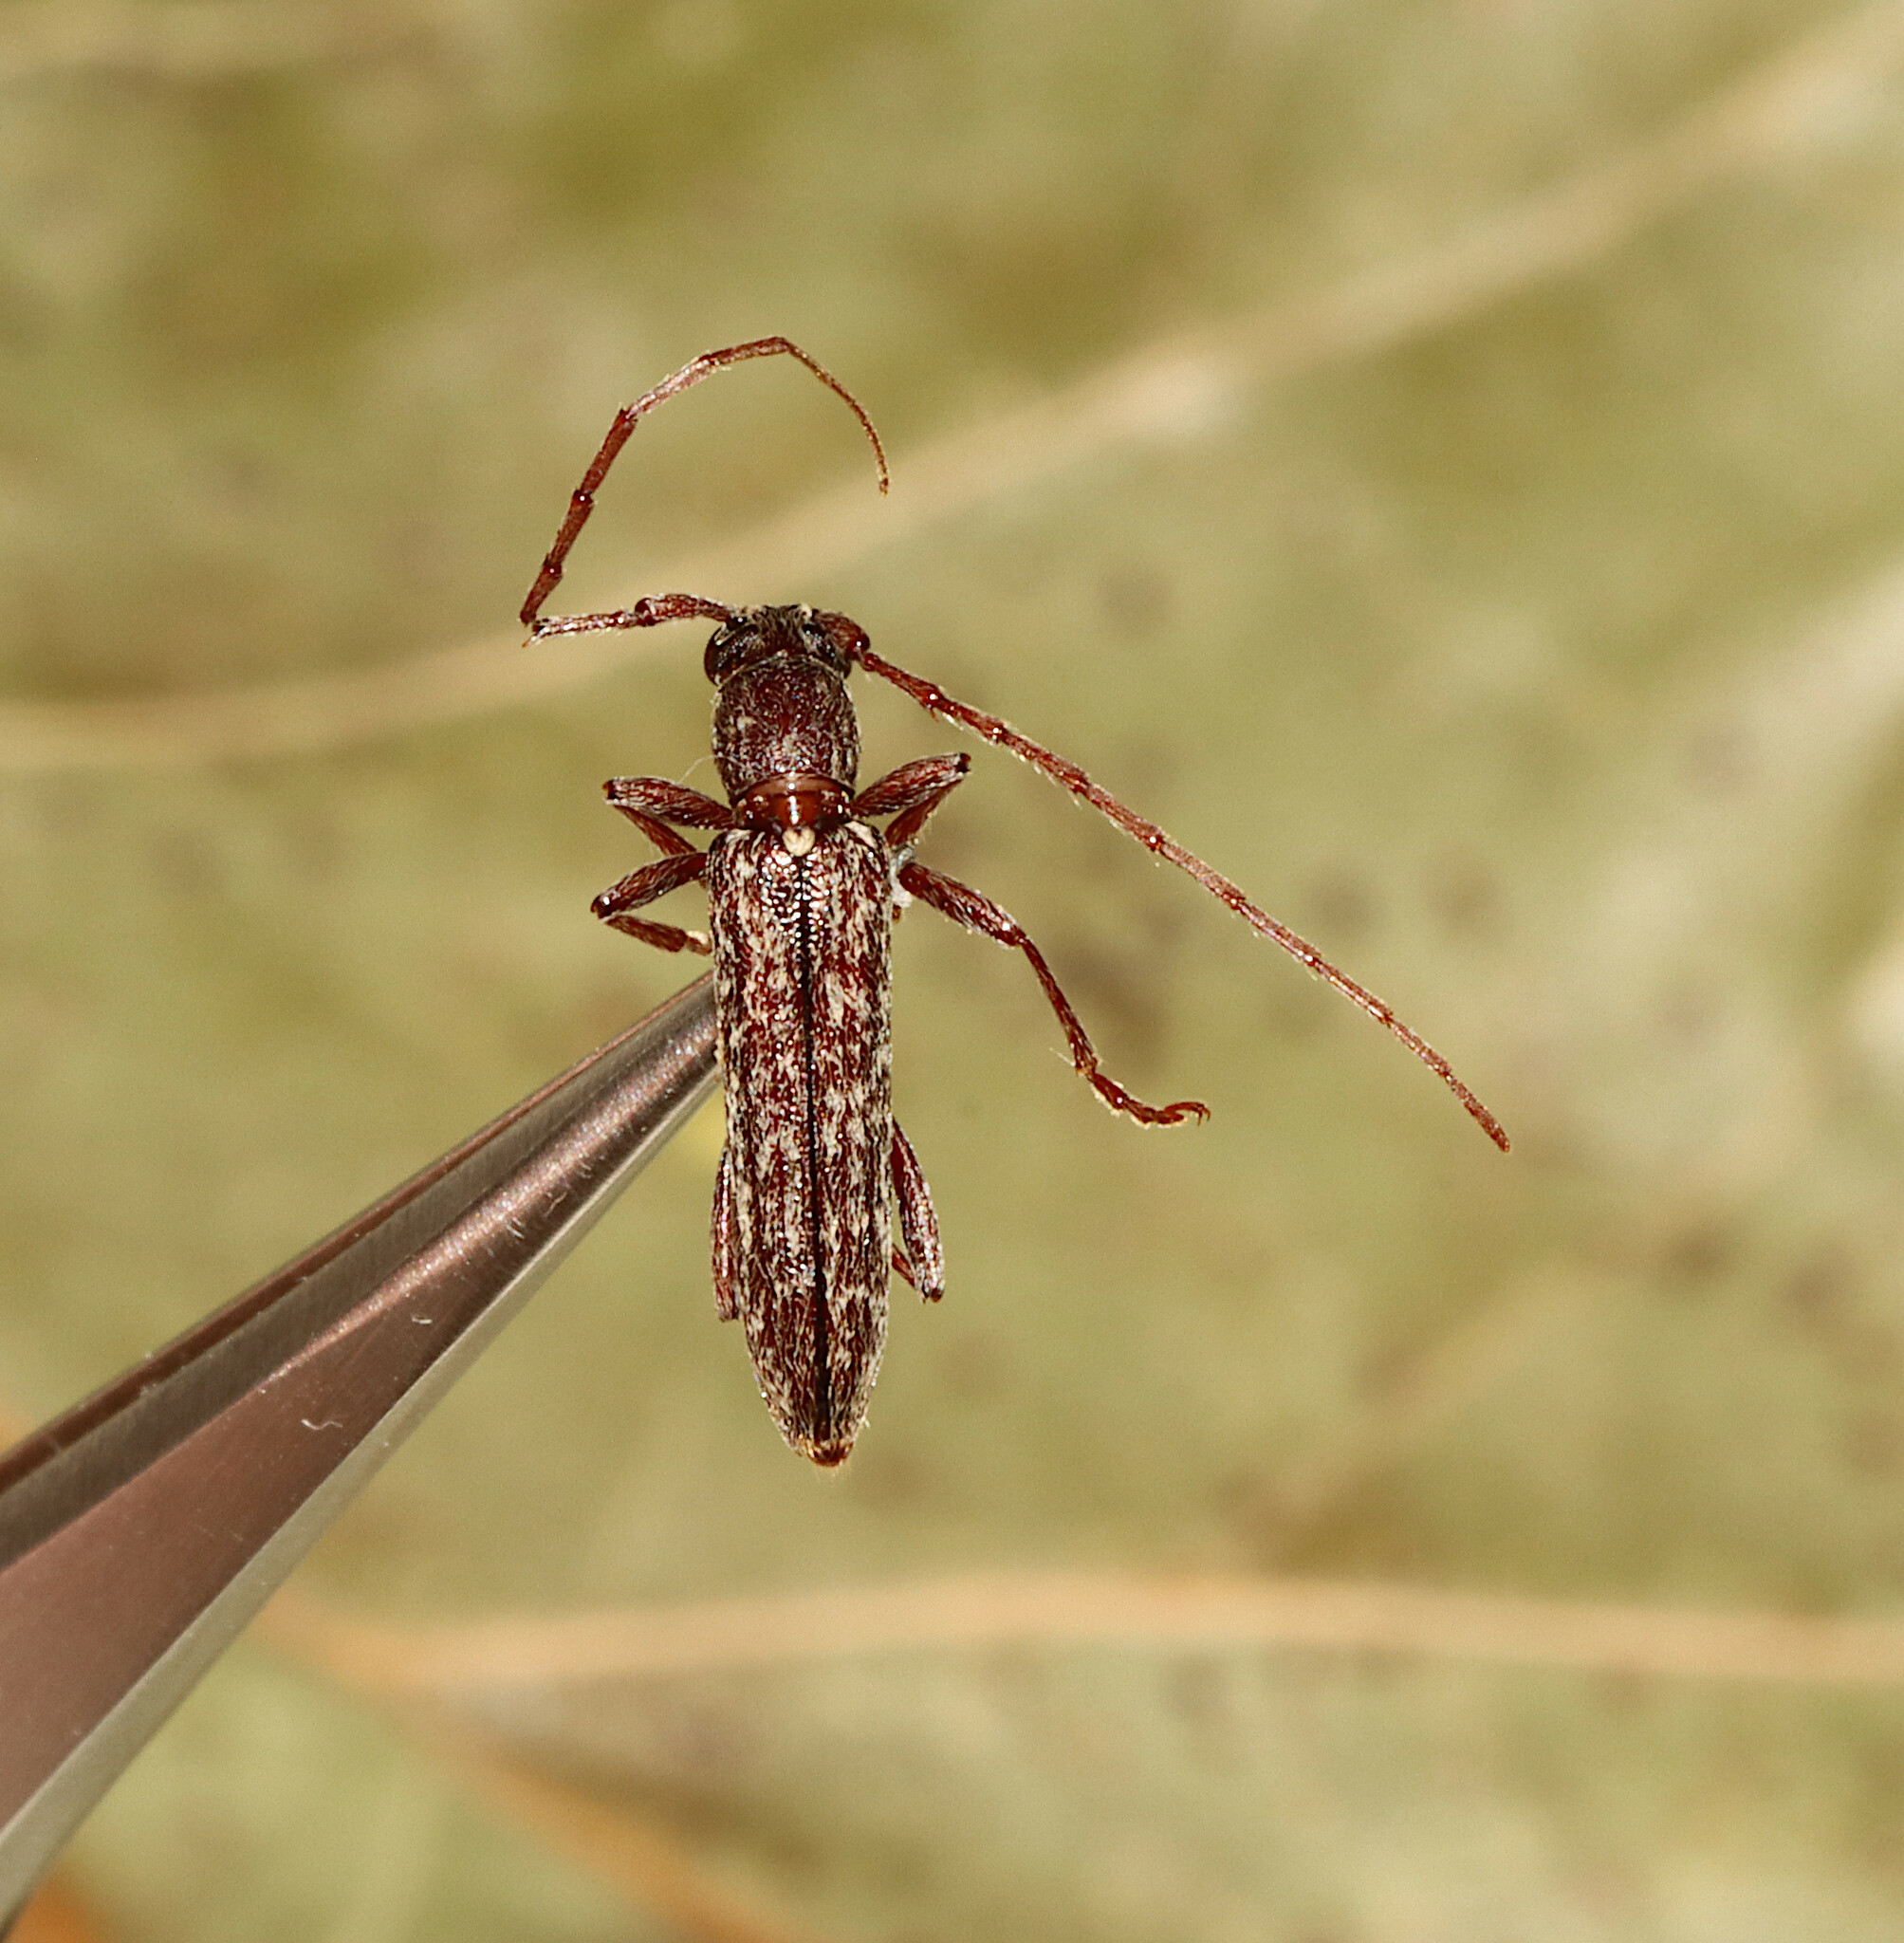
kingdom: Animalia
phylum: Arthropoda
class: Insecta
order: Coleoptera
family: Cerambycidae
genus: Anelaphus
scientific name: Anelaphus villosus
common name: Twig pruner
